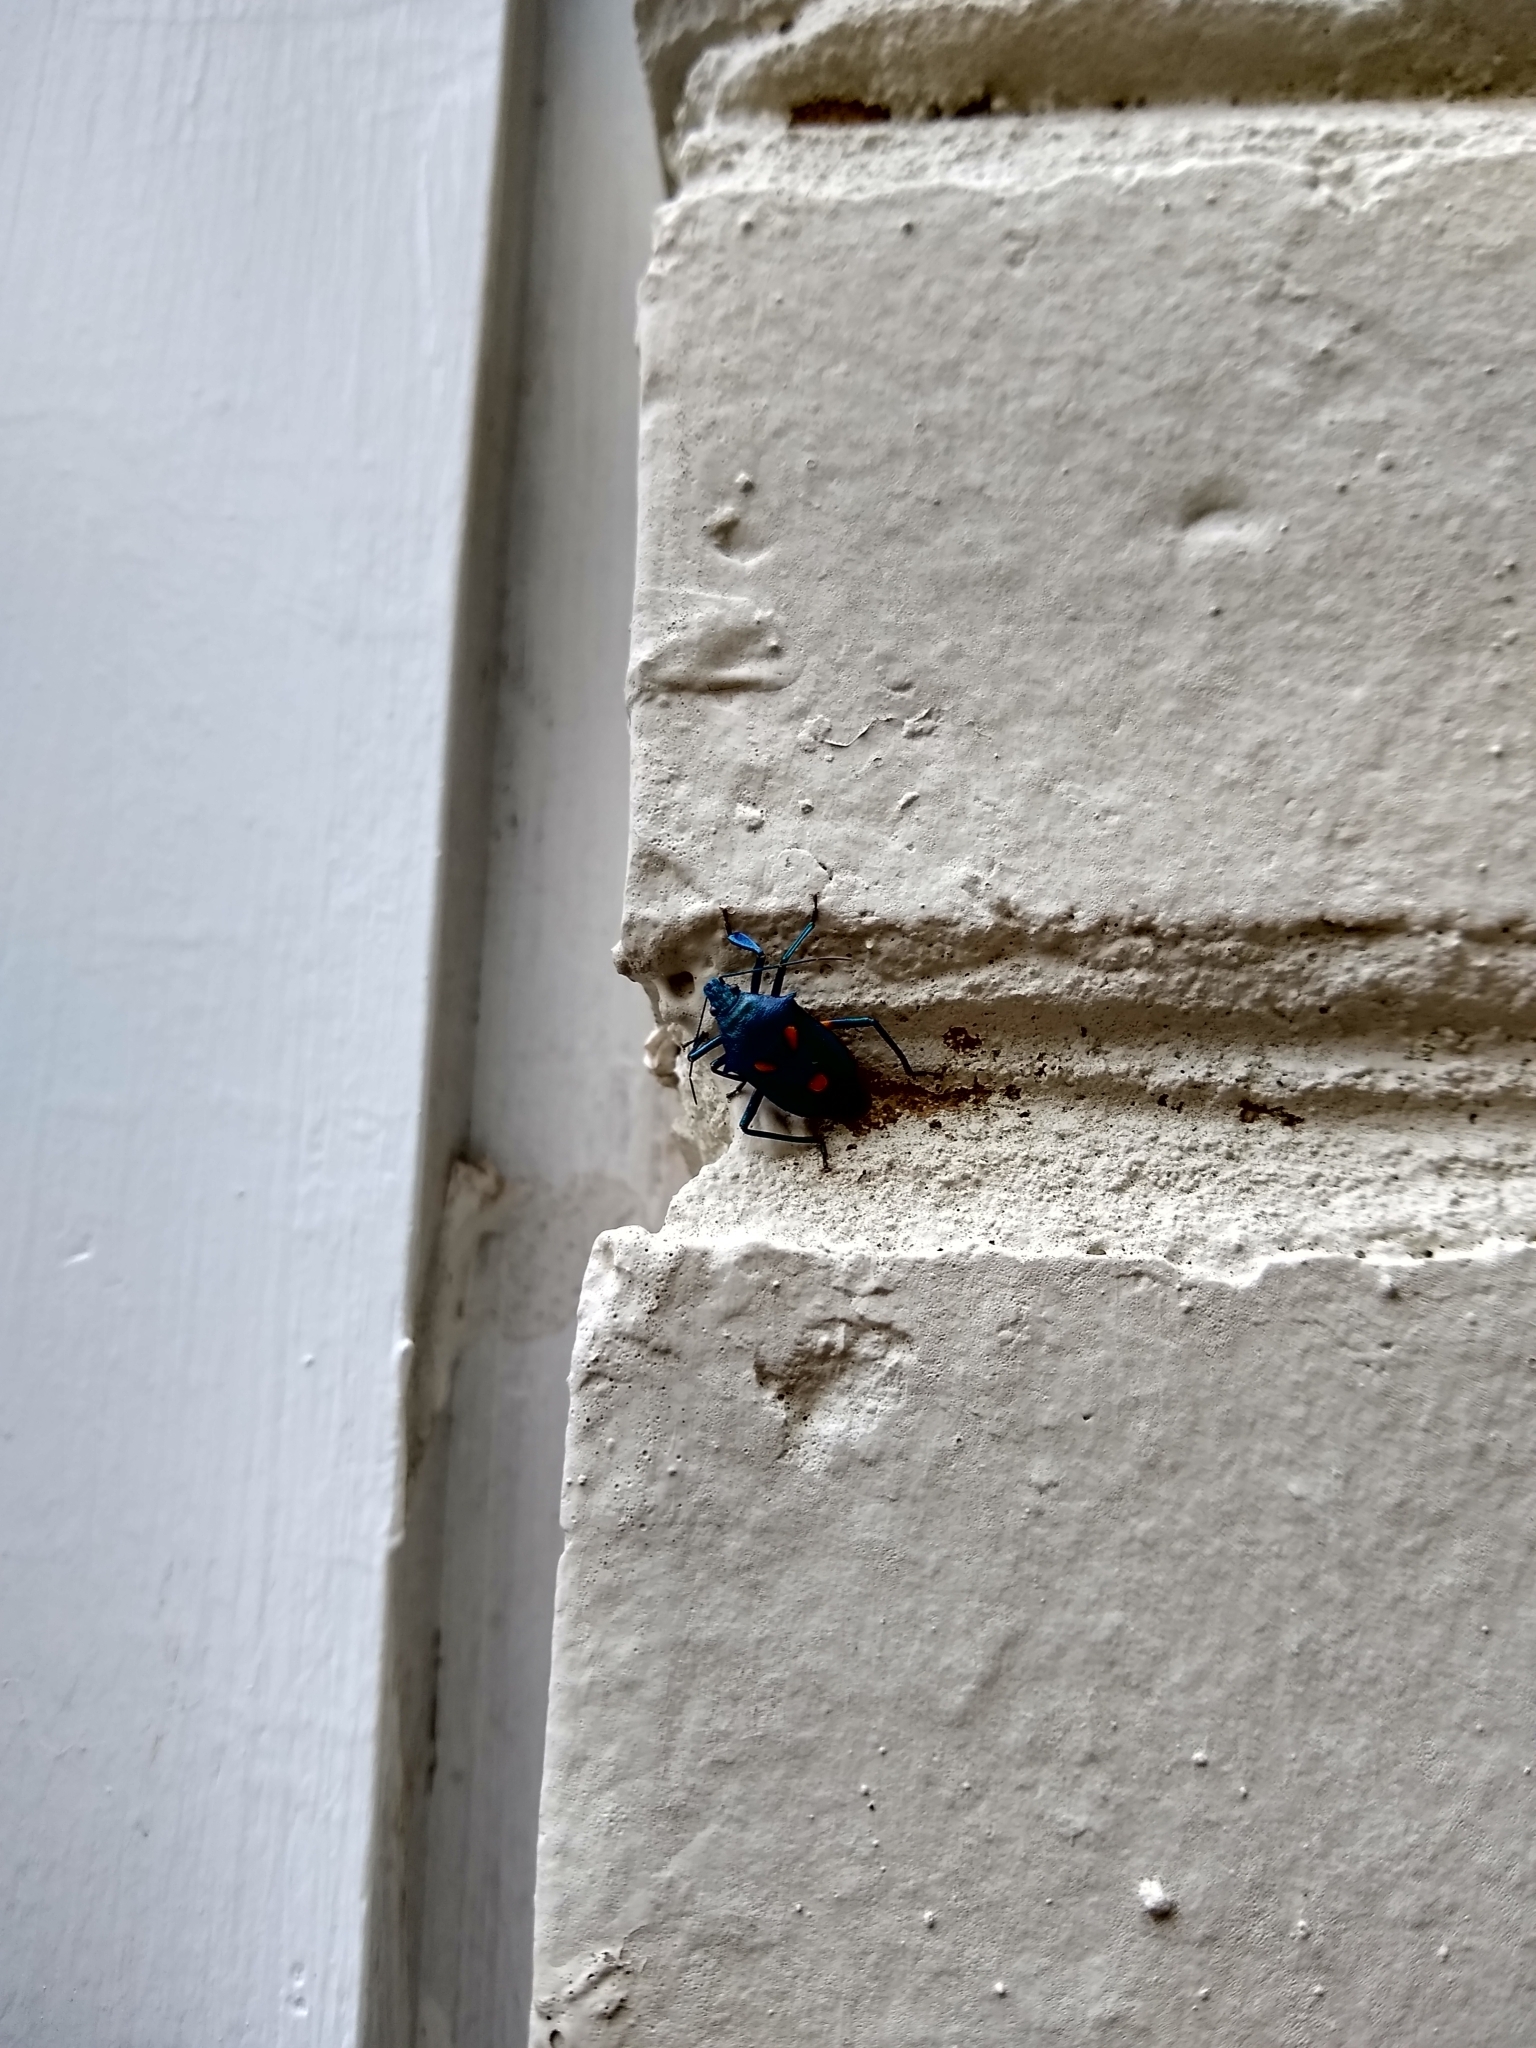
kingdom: Animalia
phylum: Arthropoda
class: Insecta
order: Hemiptera
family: Pentatomidae
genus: Euthyrhynchus
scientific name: Euthyrhynchus floridanus
